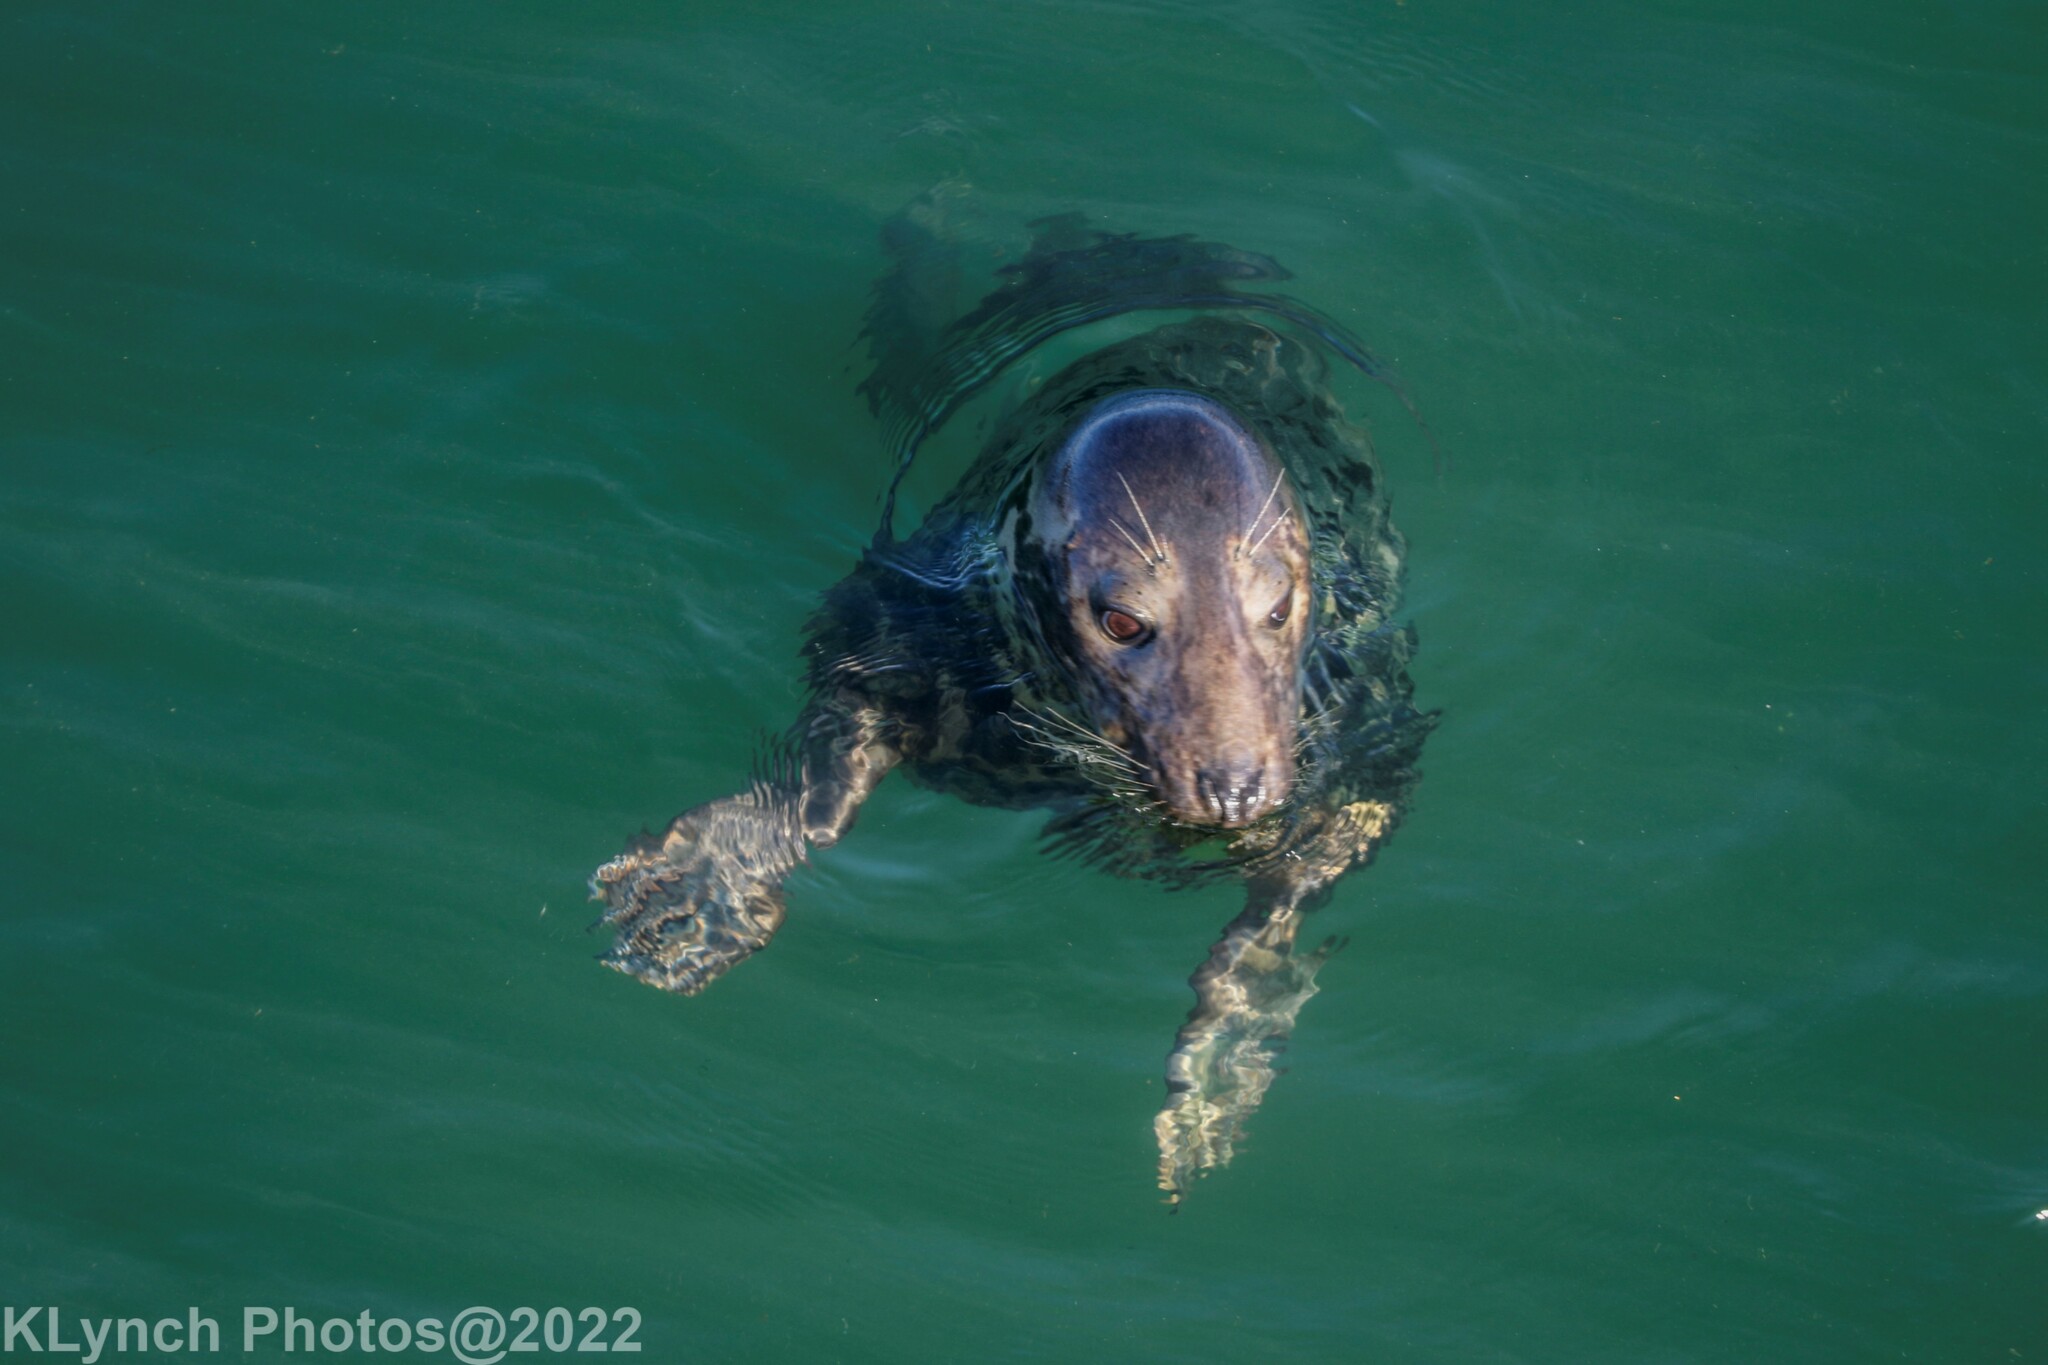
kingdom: Animalia
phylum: Chordata
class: Mammalia
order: Carnivora
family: Phocidae
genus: Halichoerus
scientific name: Halichoerus grypus
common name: Grey seal
